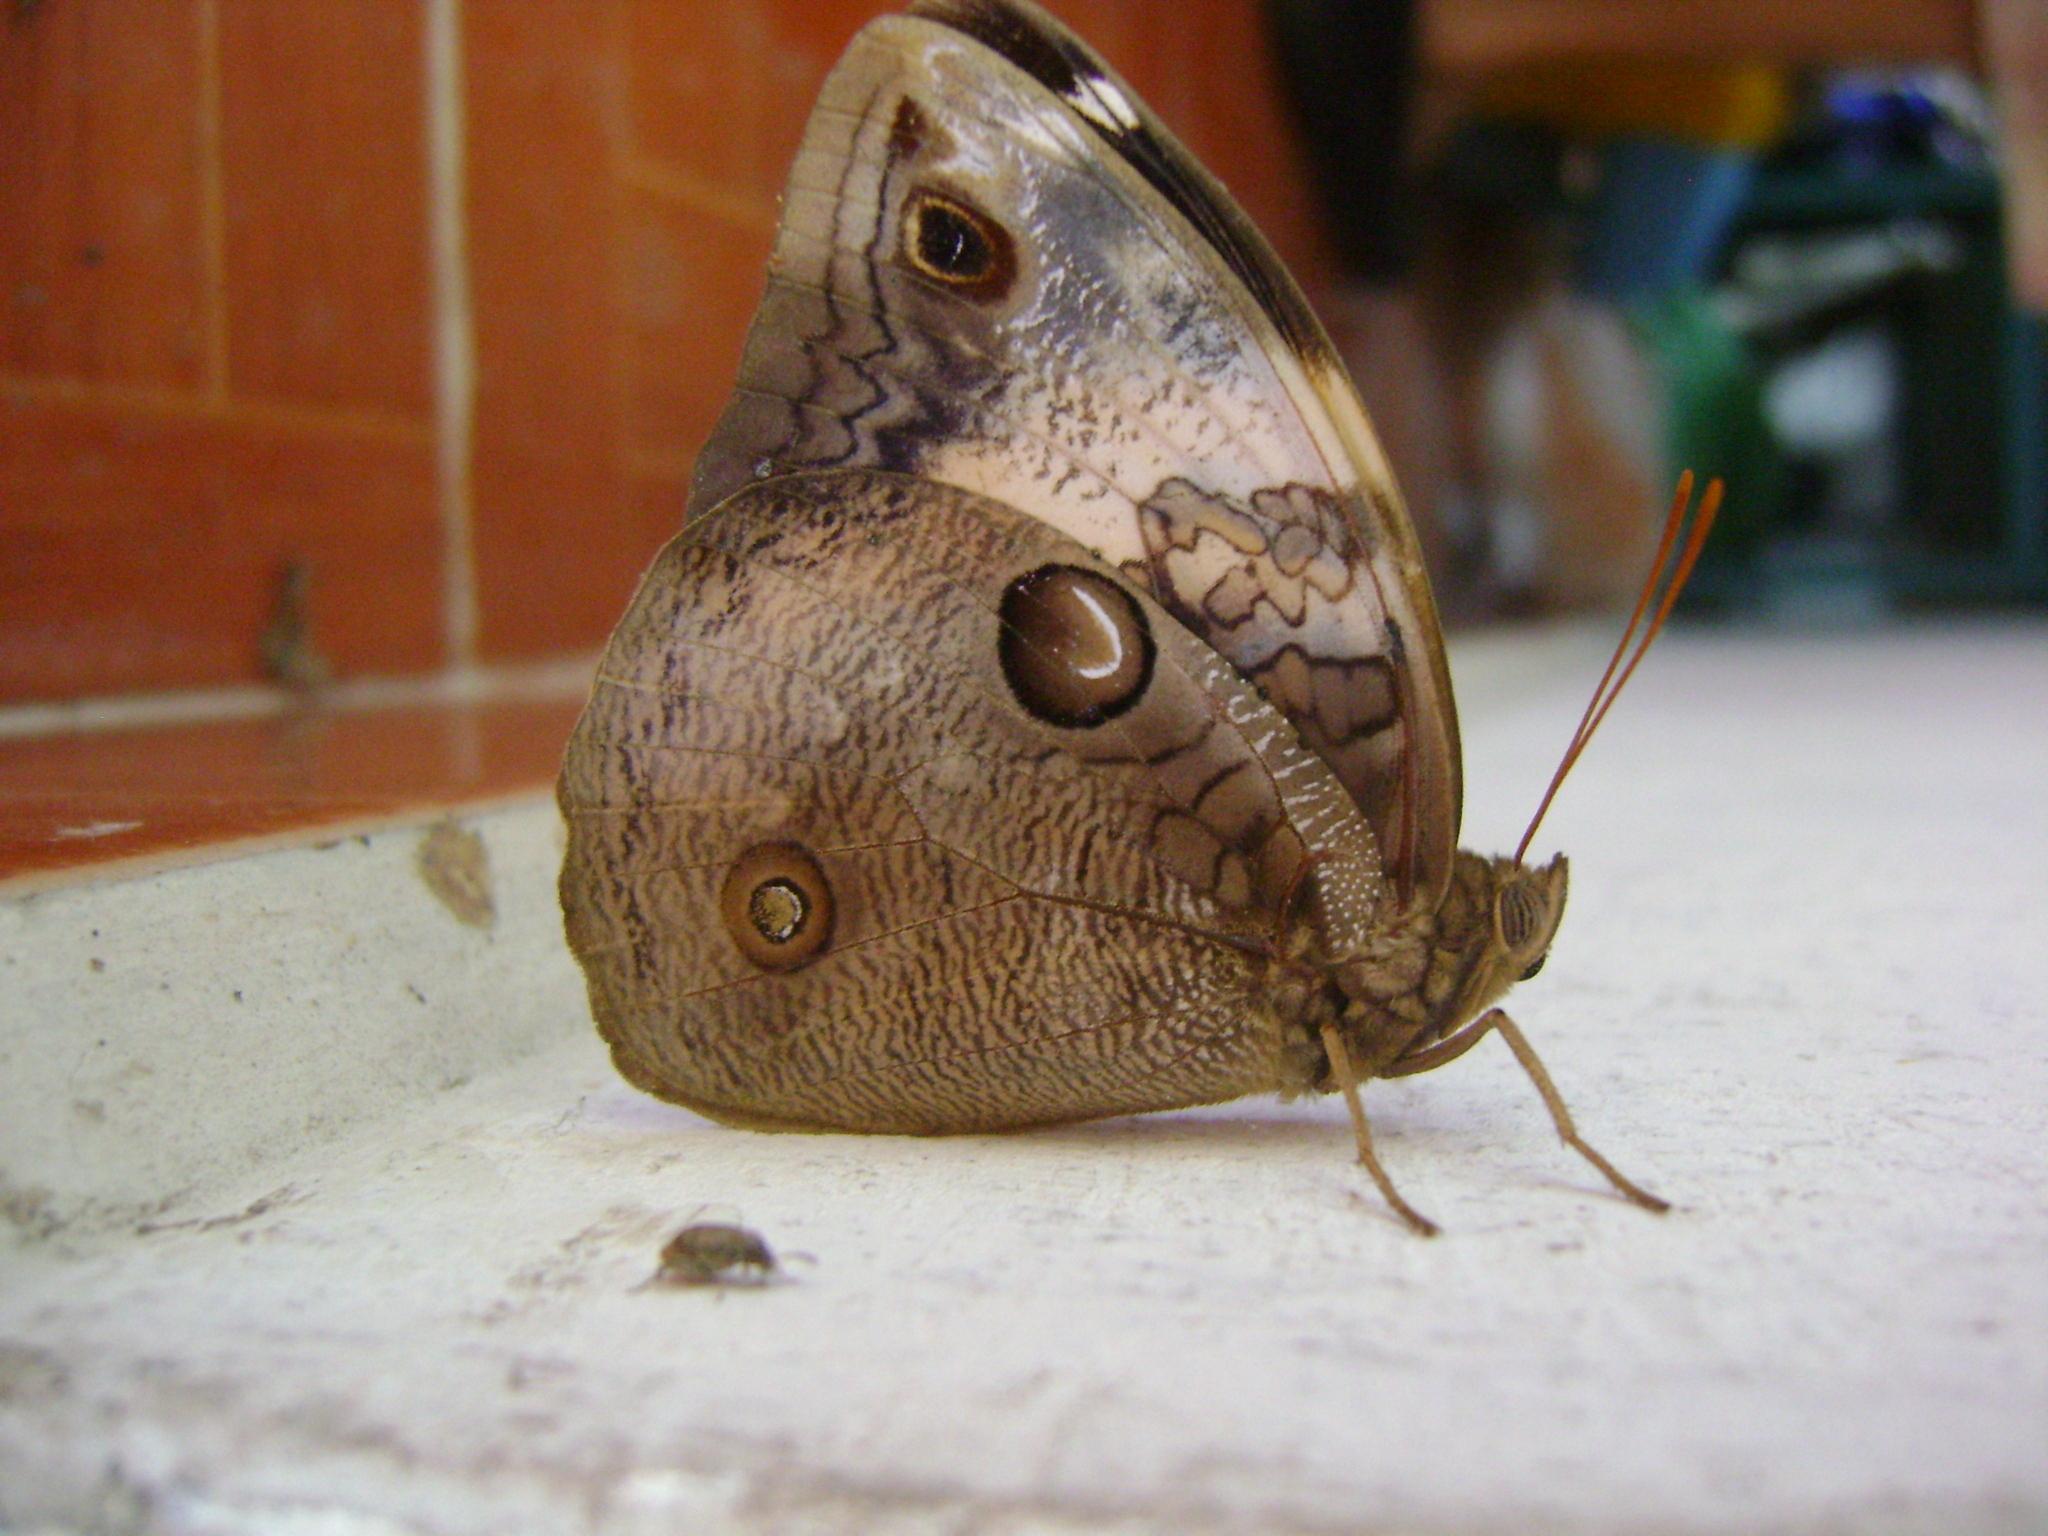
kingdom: Animalia
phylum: Arthropoda
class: Insecta
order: Lepidoptera
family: Nymphalidae
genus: Opsiphanes
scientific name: Opsiphanes cassina
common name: Split-banded owl-butterfly
